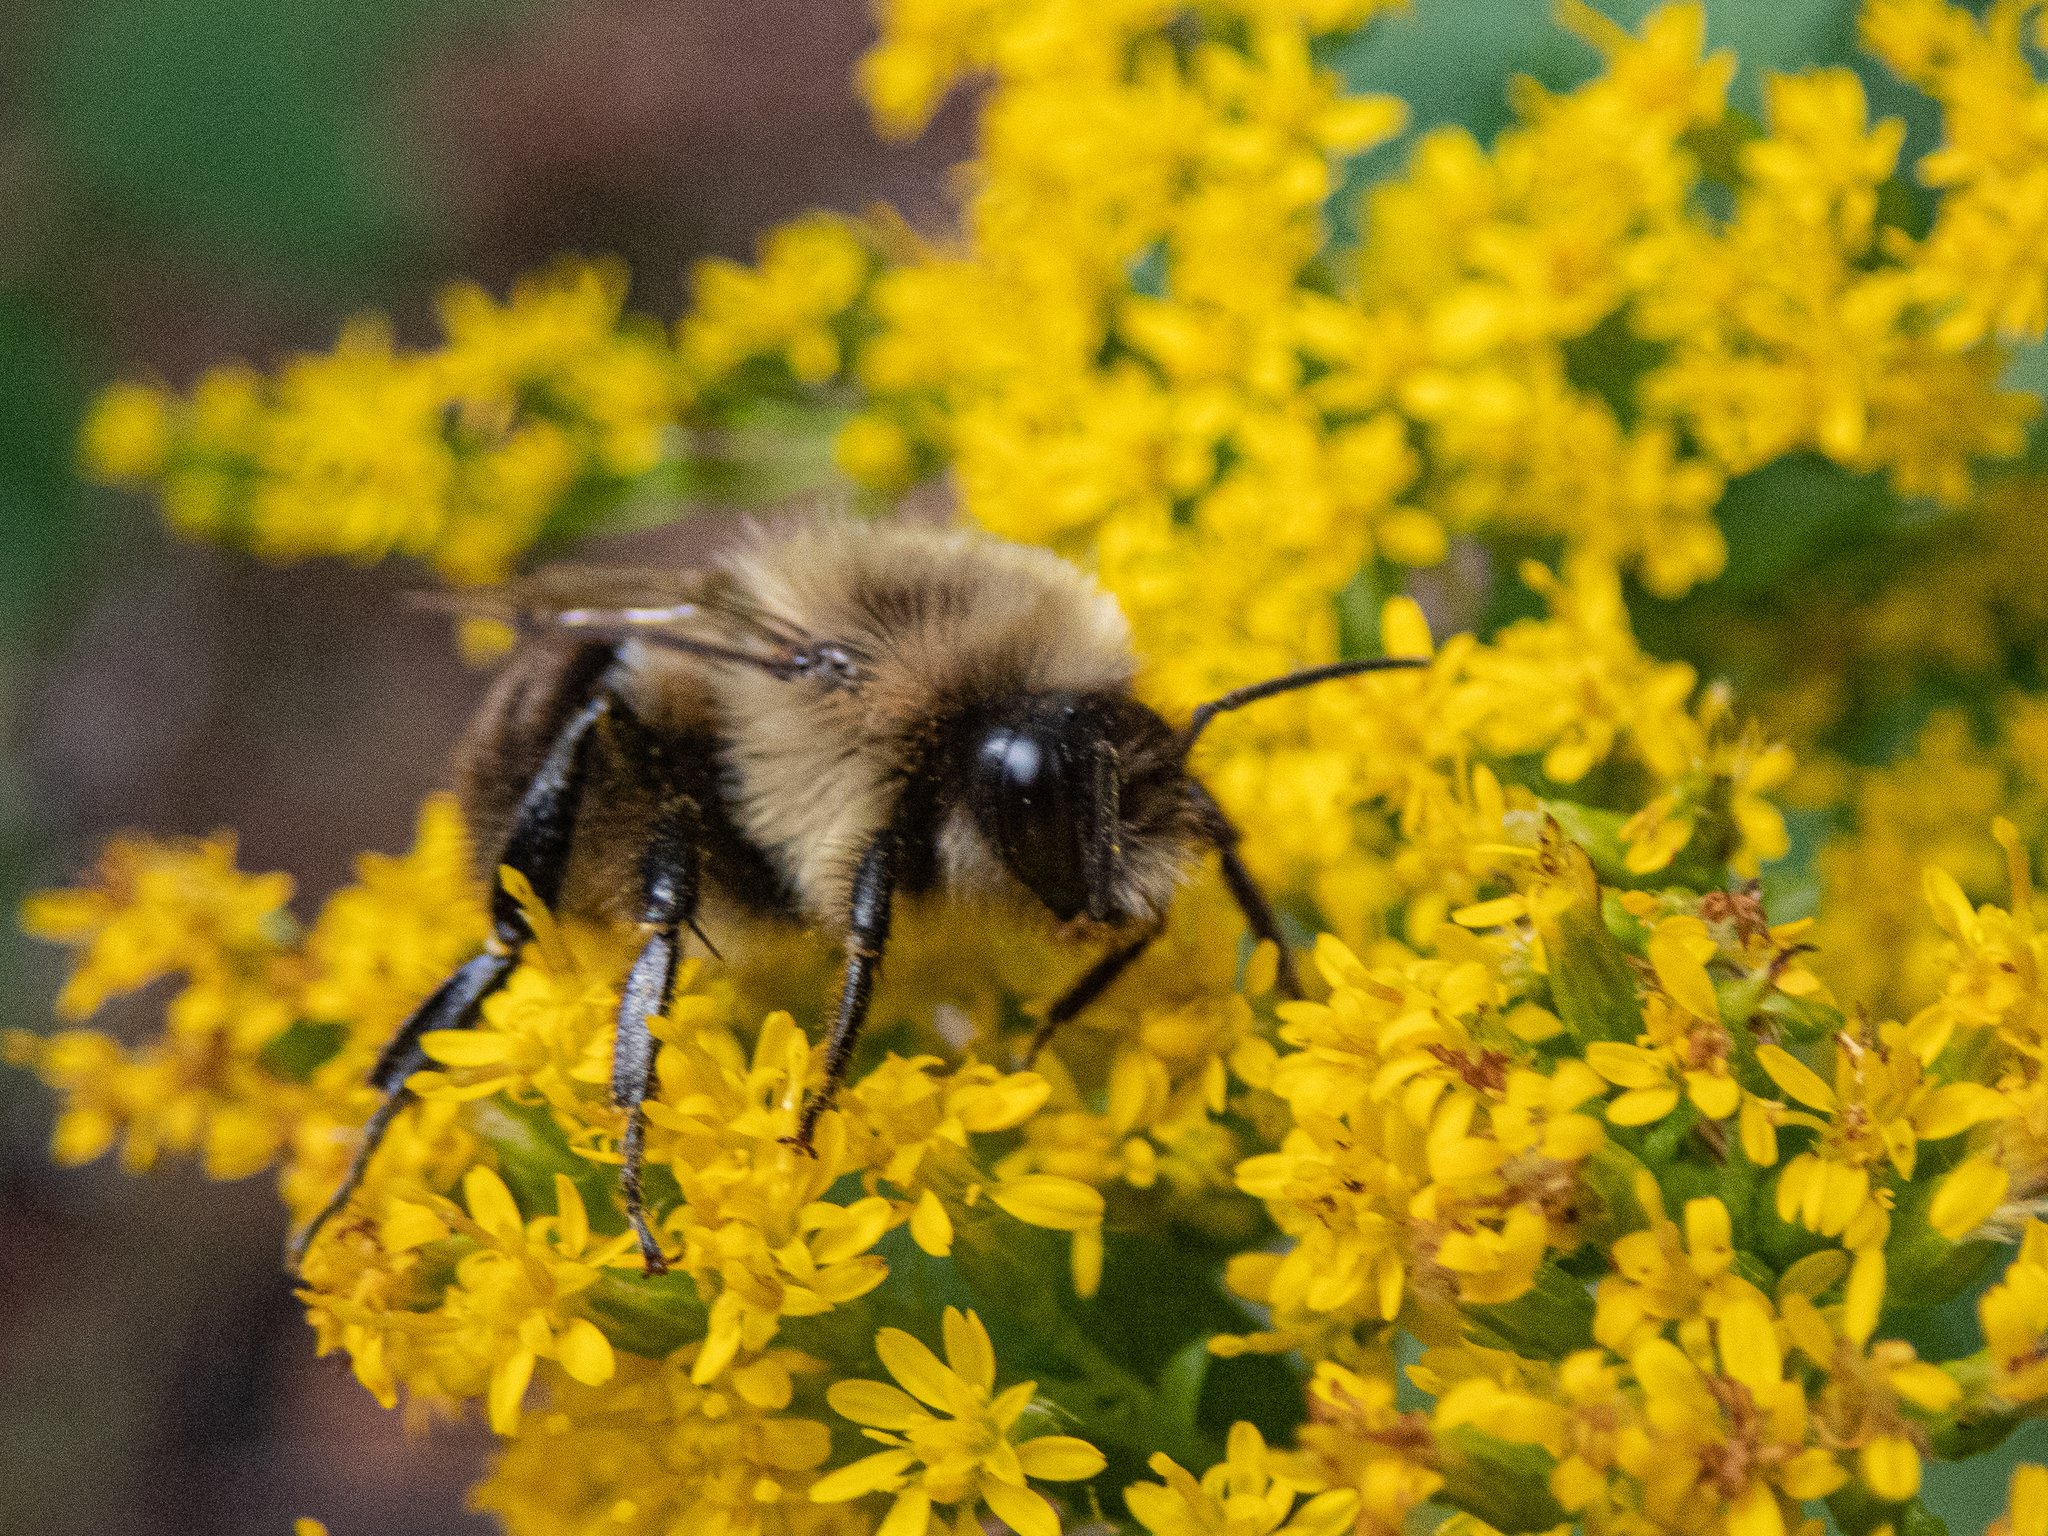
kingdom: Animalia
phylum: Arthropoda
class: Insecta
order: Hymenoptera
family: Apidae
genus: Bombus
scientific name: Bombus impatiens
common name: Common eastern bumble bee
